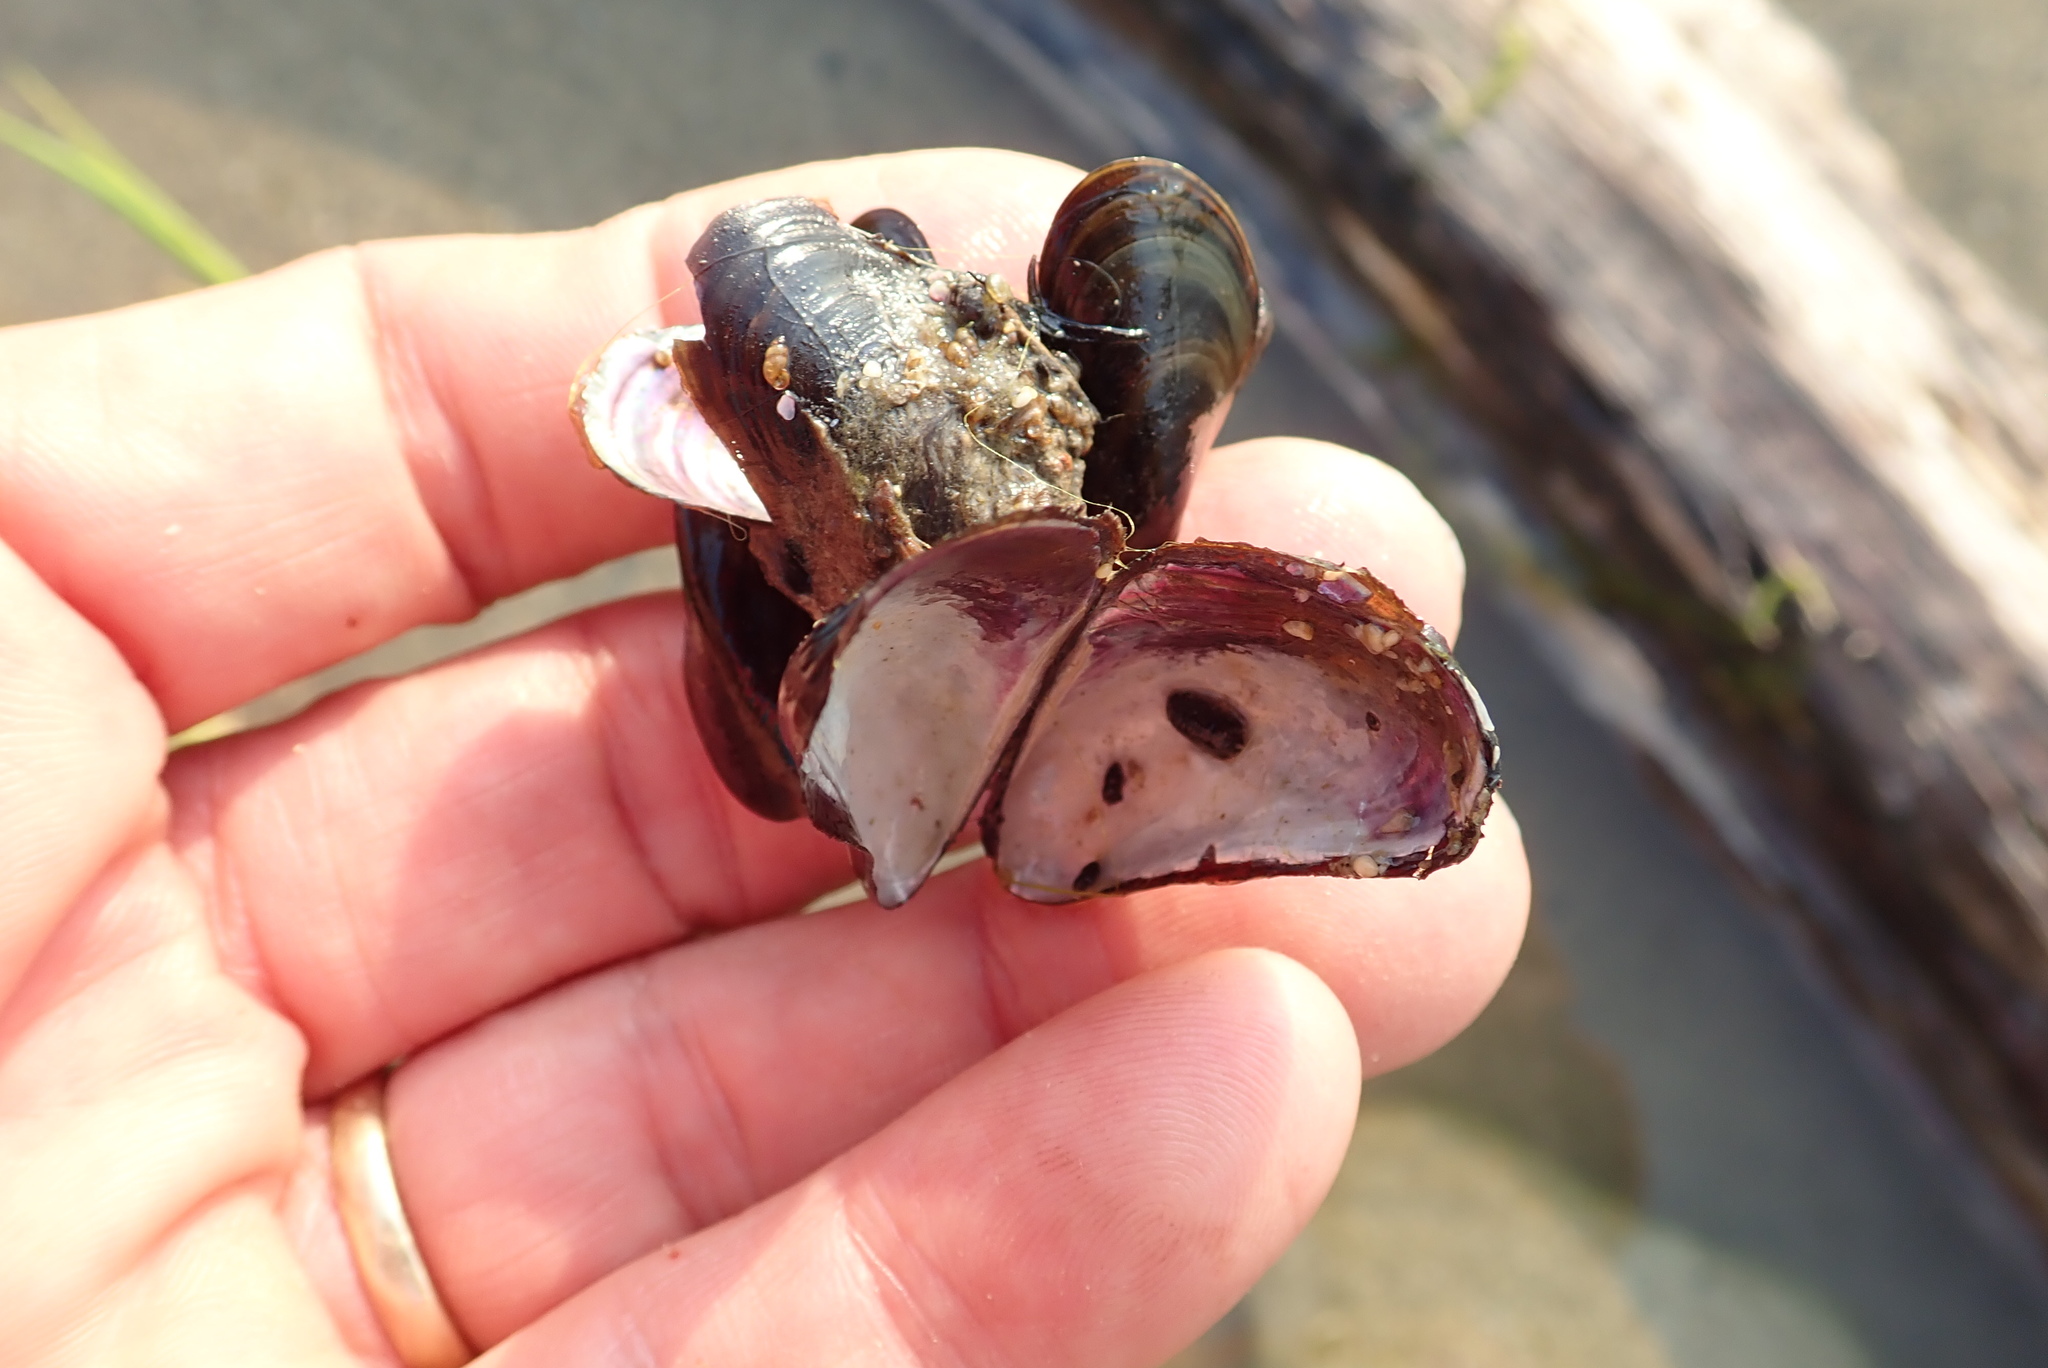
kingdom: Animalia
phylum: Mollusca
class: Bivalvia
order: Mytilida
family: Mytilidae
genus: Xenostrobus
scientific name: Xenostrobus securis
